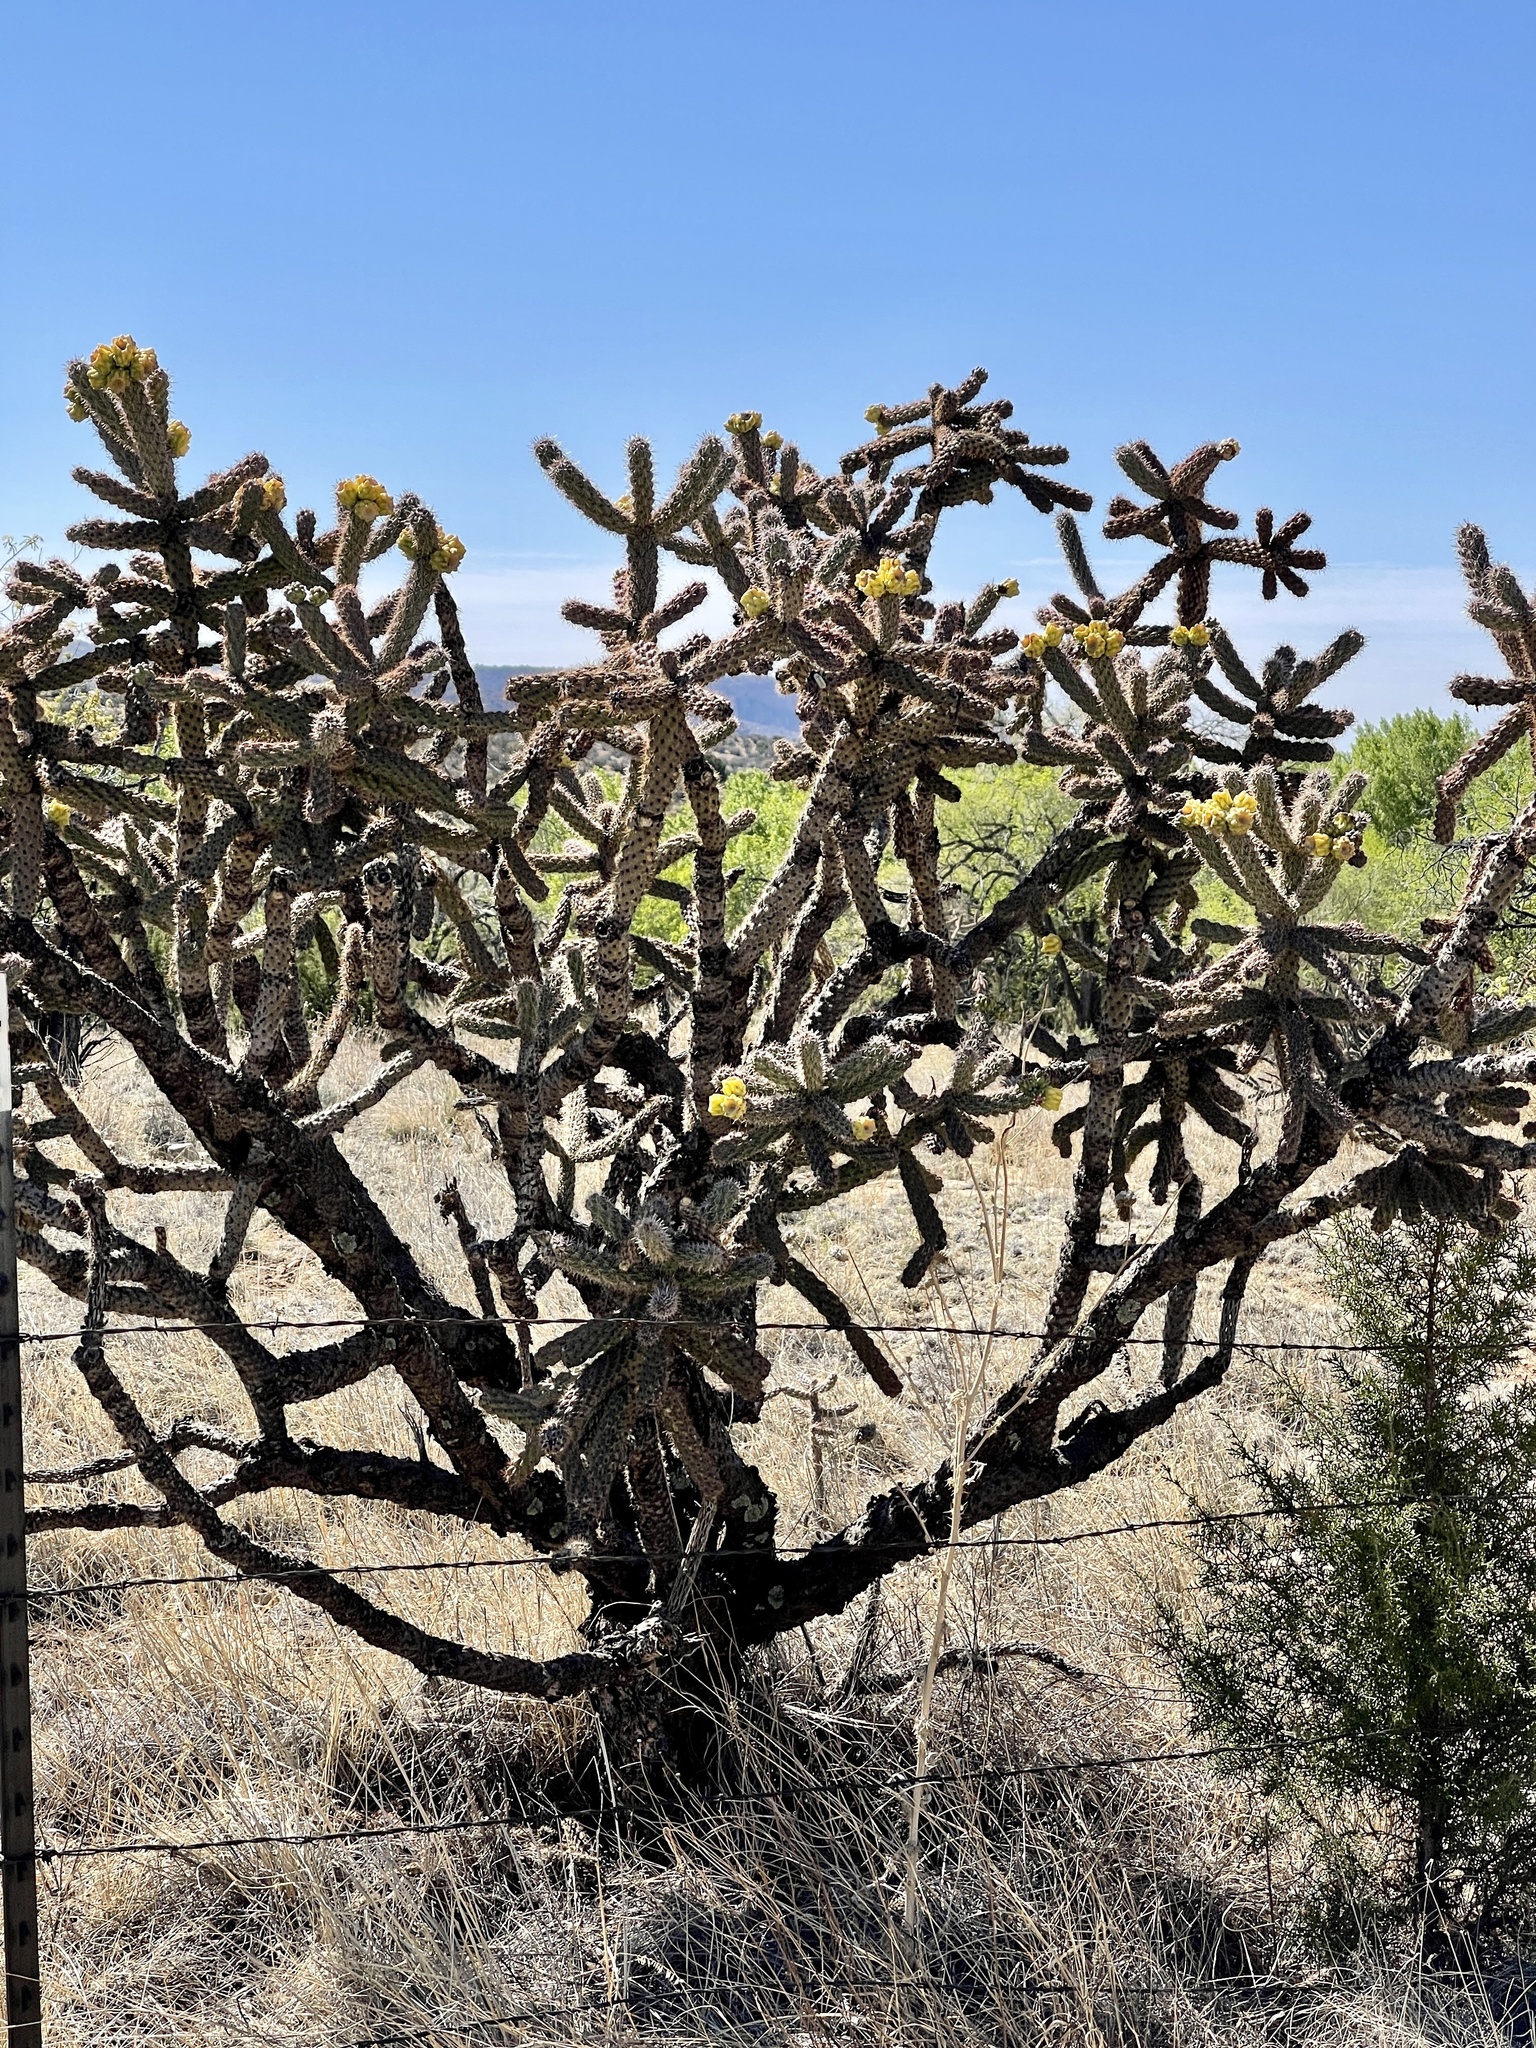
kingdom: Plantae
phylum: Tracheophyta
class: Magnoliopsida
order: Caryophyllales
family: Cactaceae
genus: Cylindropuntia
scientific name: Cylindropuntia imbricata
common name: Candelabrum cactus
